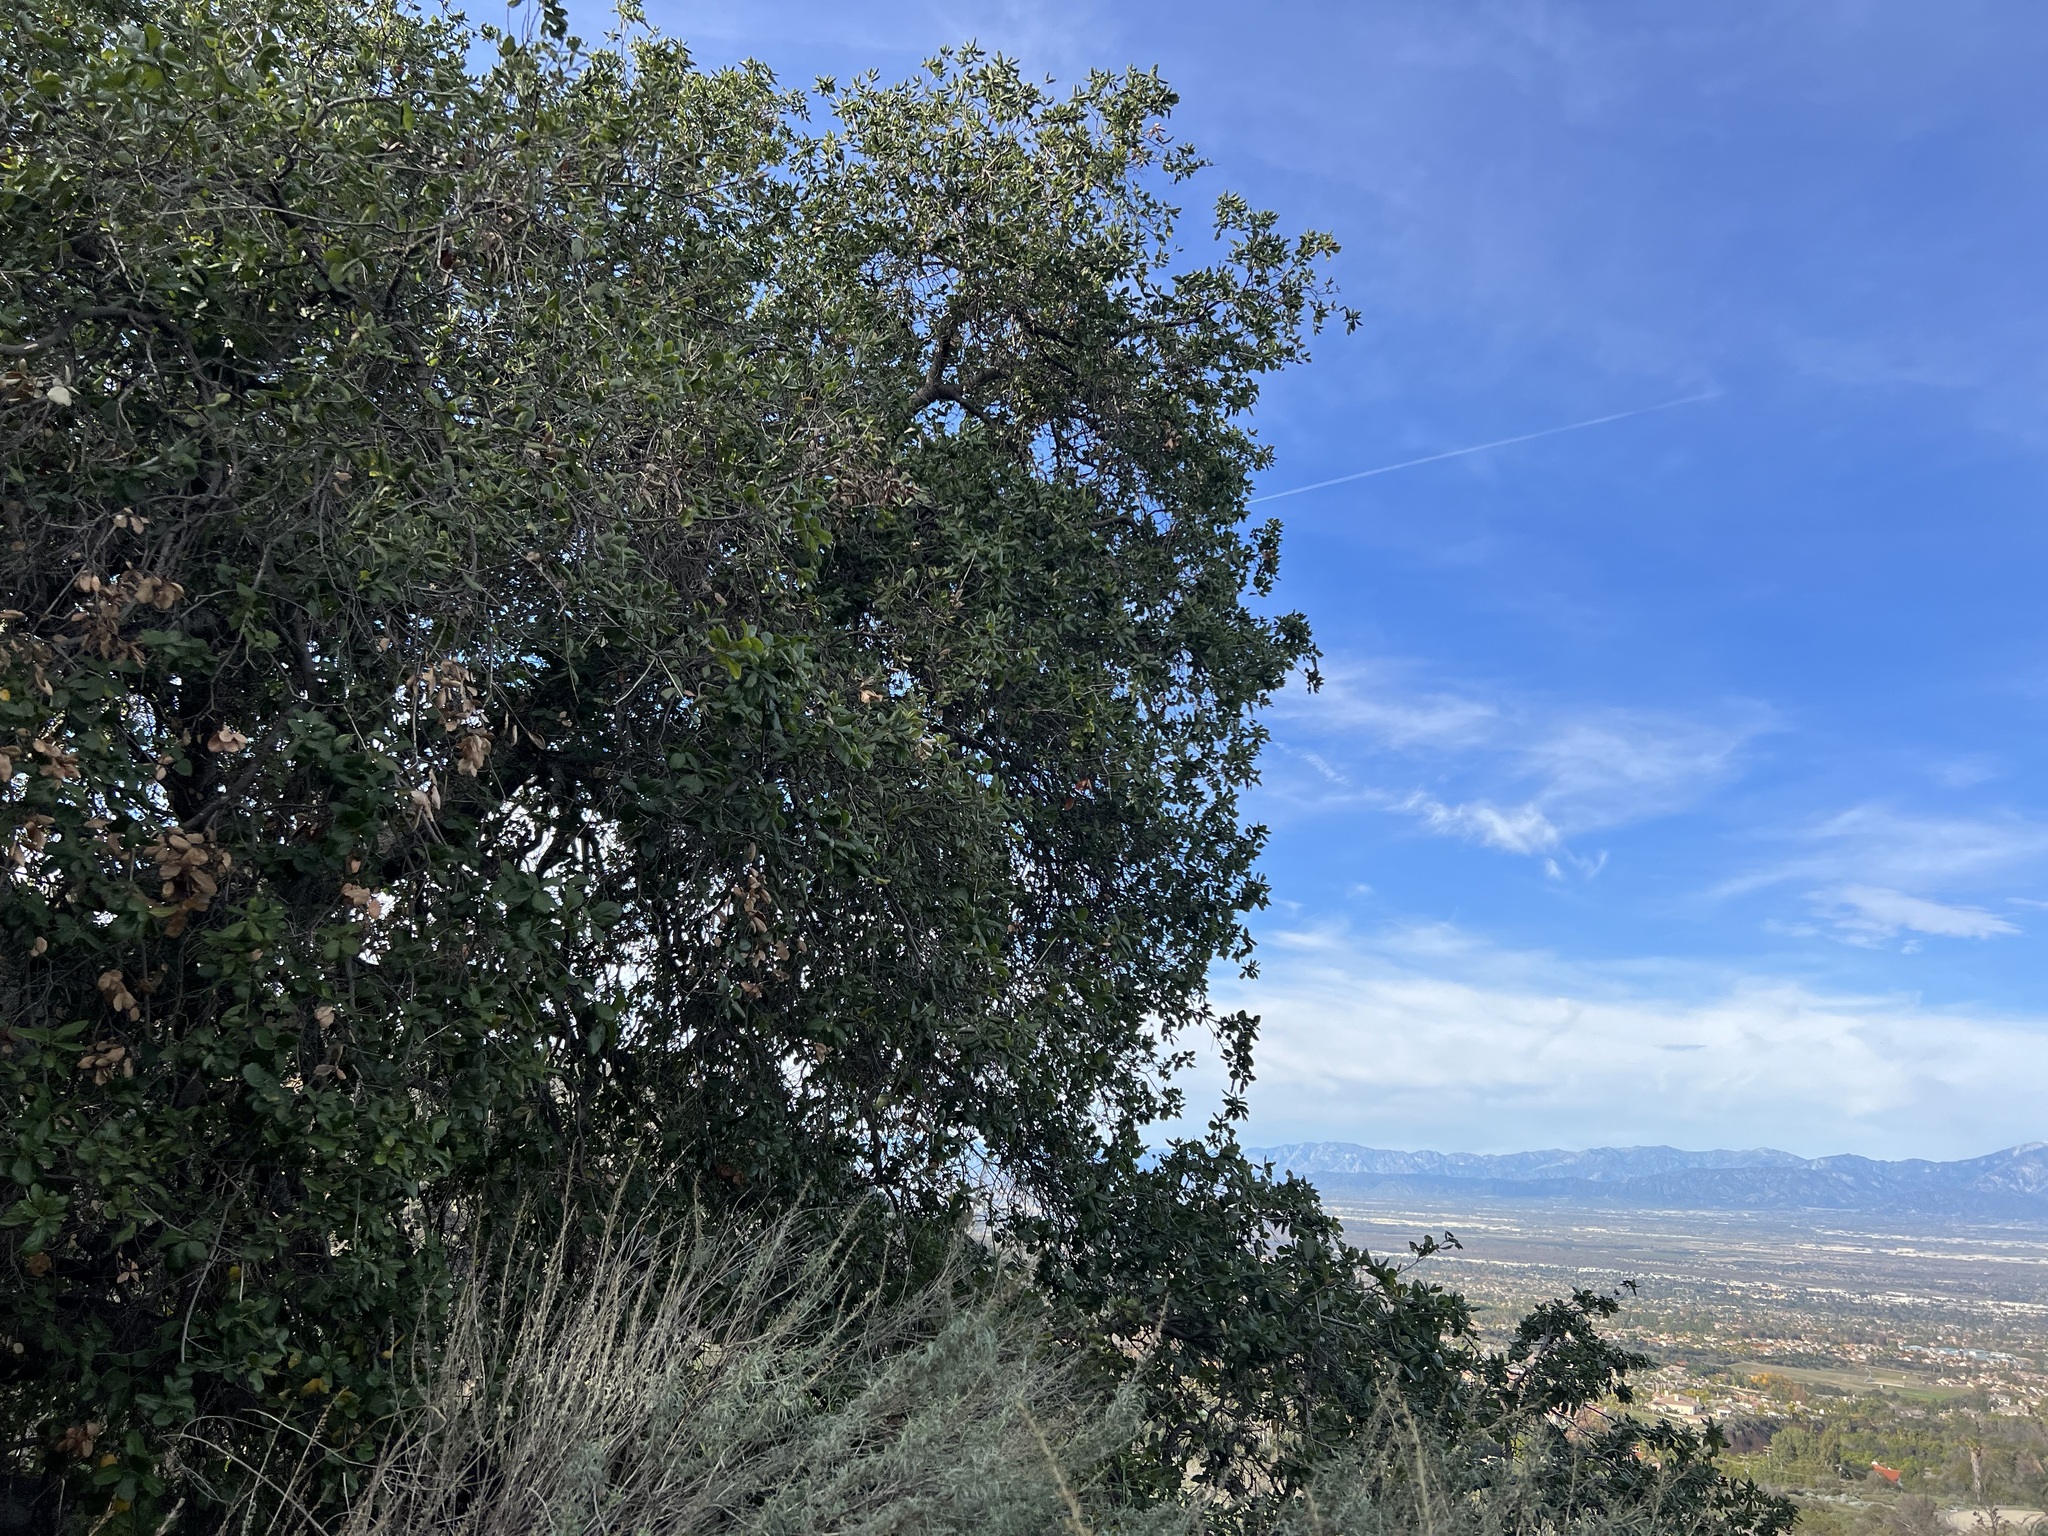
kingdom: Plantae
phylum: Tracheophyta
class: Magnoliopsida
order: Fagales
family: Fagaceae
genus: Quercus
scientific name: Quercus agrifolia
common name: California live oak
